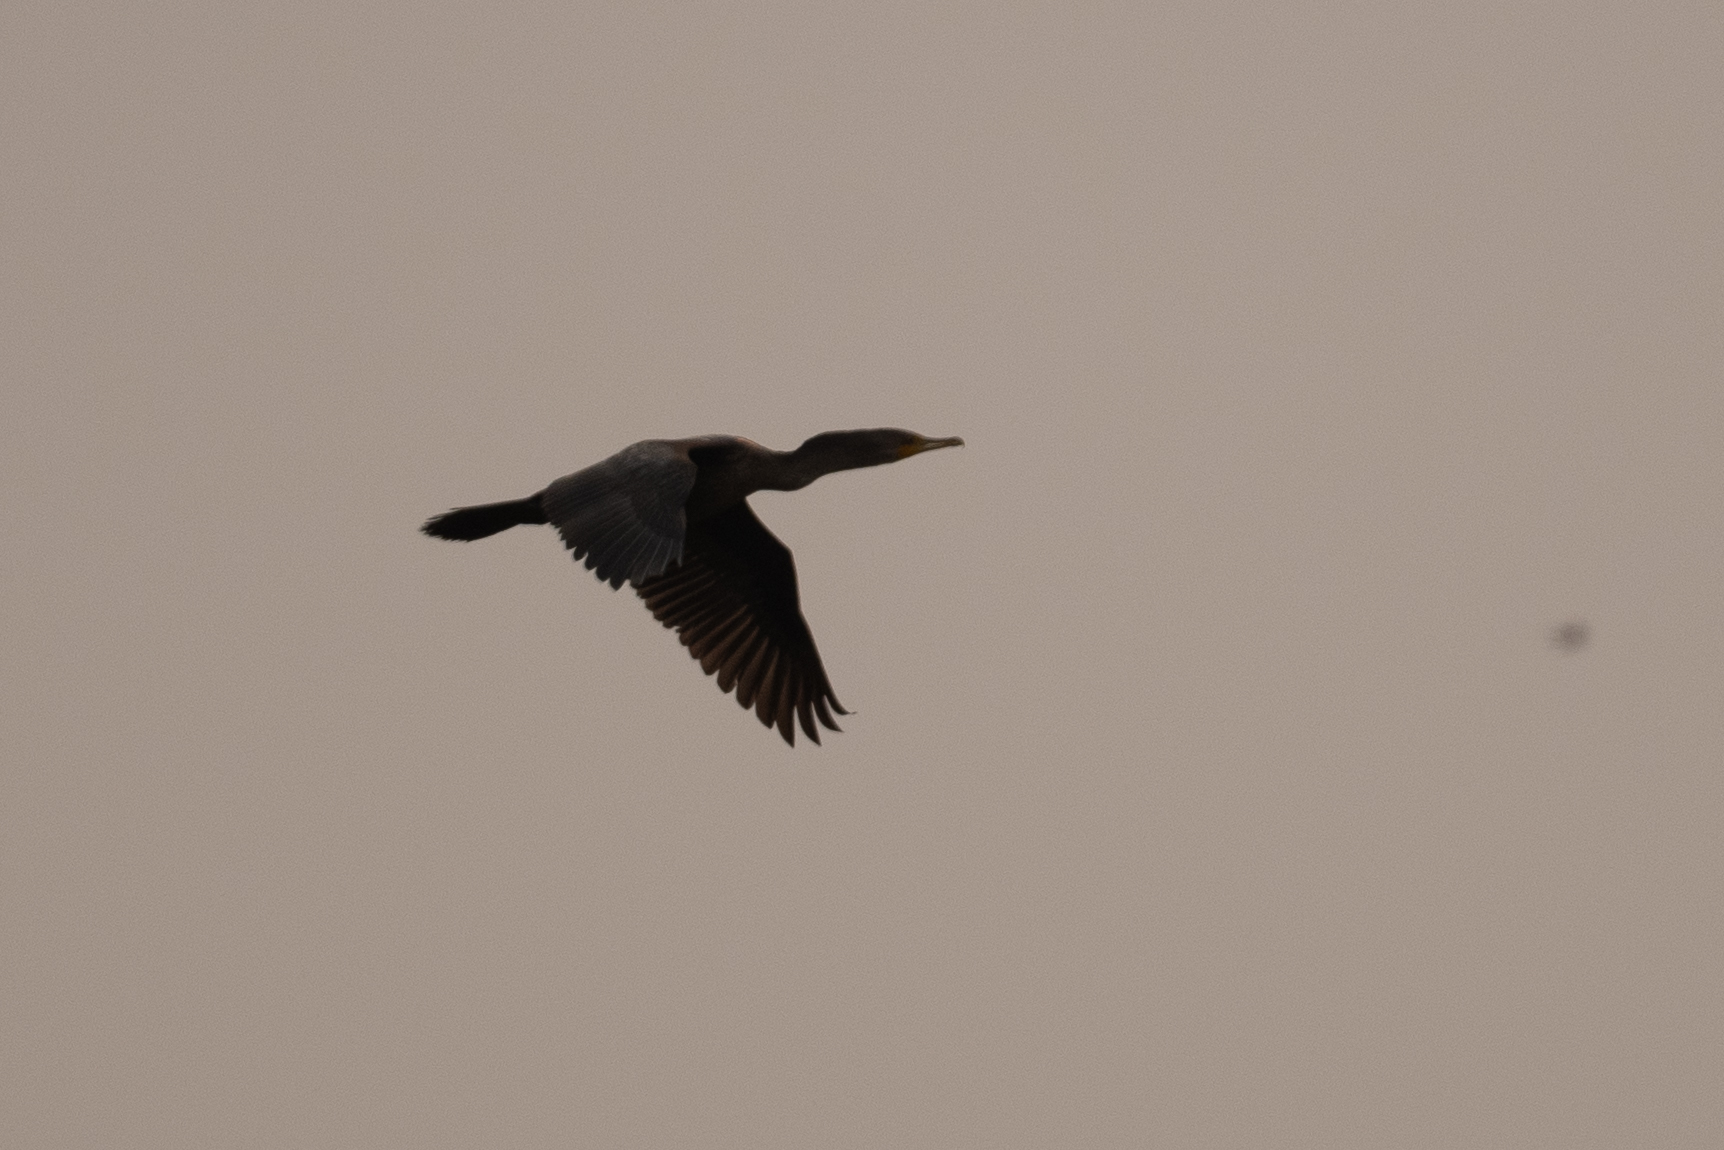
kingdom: Animalia
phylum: Chordata
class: Aves
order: Suliformes
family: Phalacrocoracidae
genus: Phalacrocorax
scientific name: Phalacrocorax auritus
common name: Double-crested cormorant
